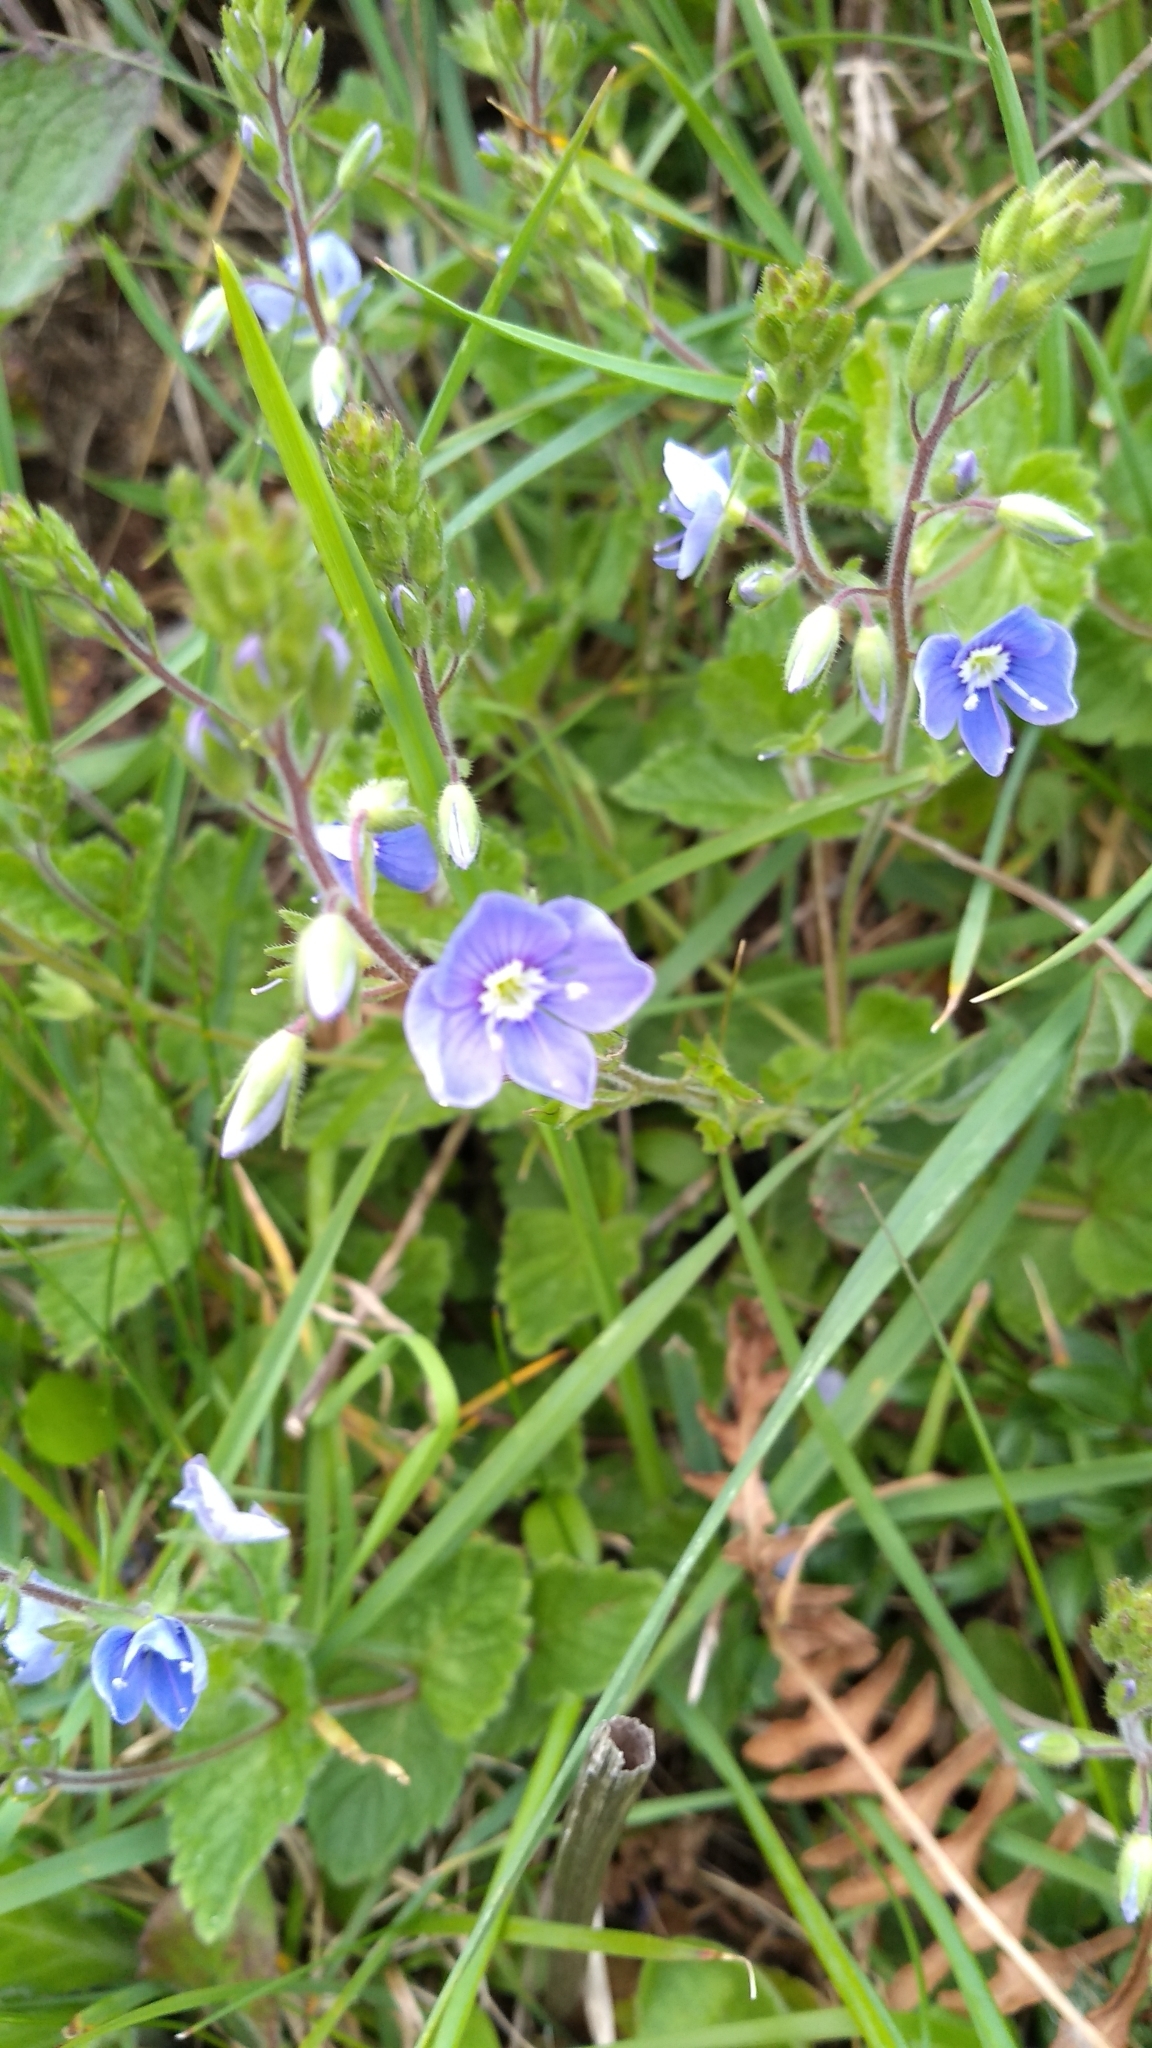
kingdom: Plantae
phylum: Tracheophyta
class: Magnoliopsida
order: Lamiales
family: Plantaginaceae
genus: Veronica
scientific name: Veronica chamaedrys
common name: Germander speedwell
